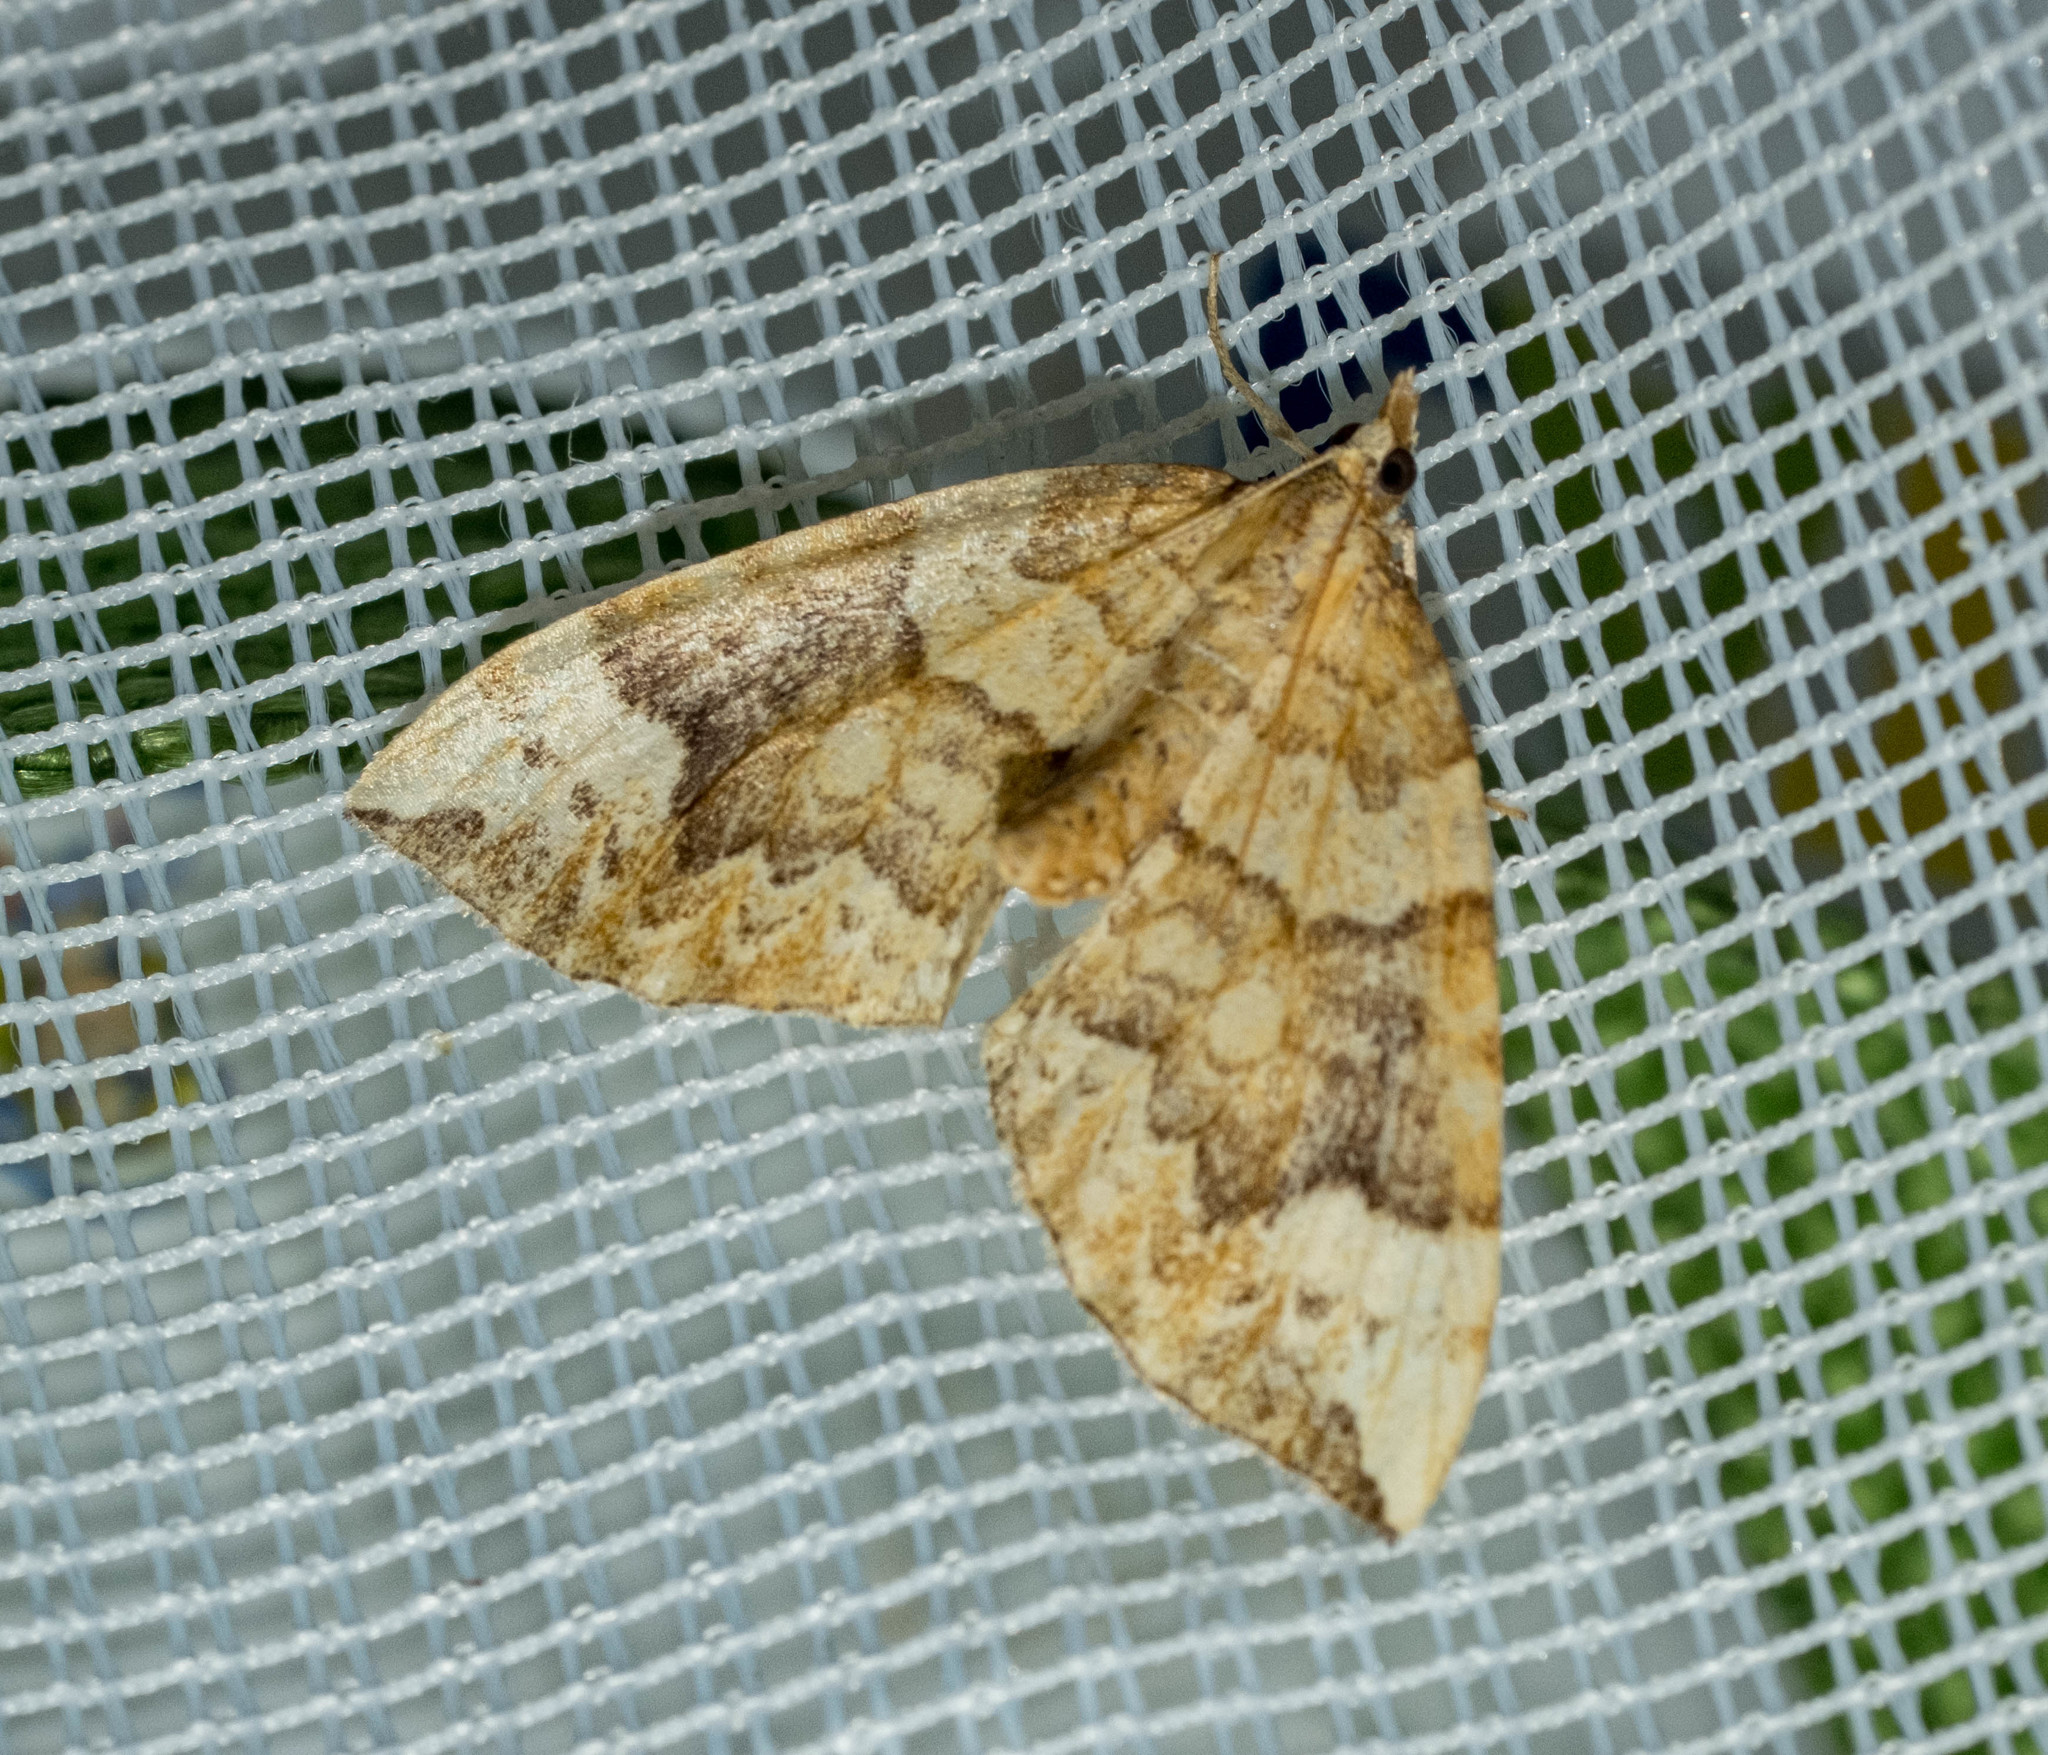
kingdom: Animalia
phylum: Arthropoda
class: Insecta
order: Lepidoptera
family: Geometridae
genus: Eulithis
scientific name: Eulithis populata
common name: Northern spinach
